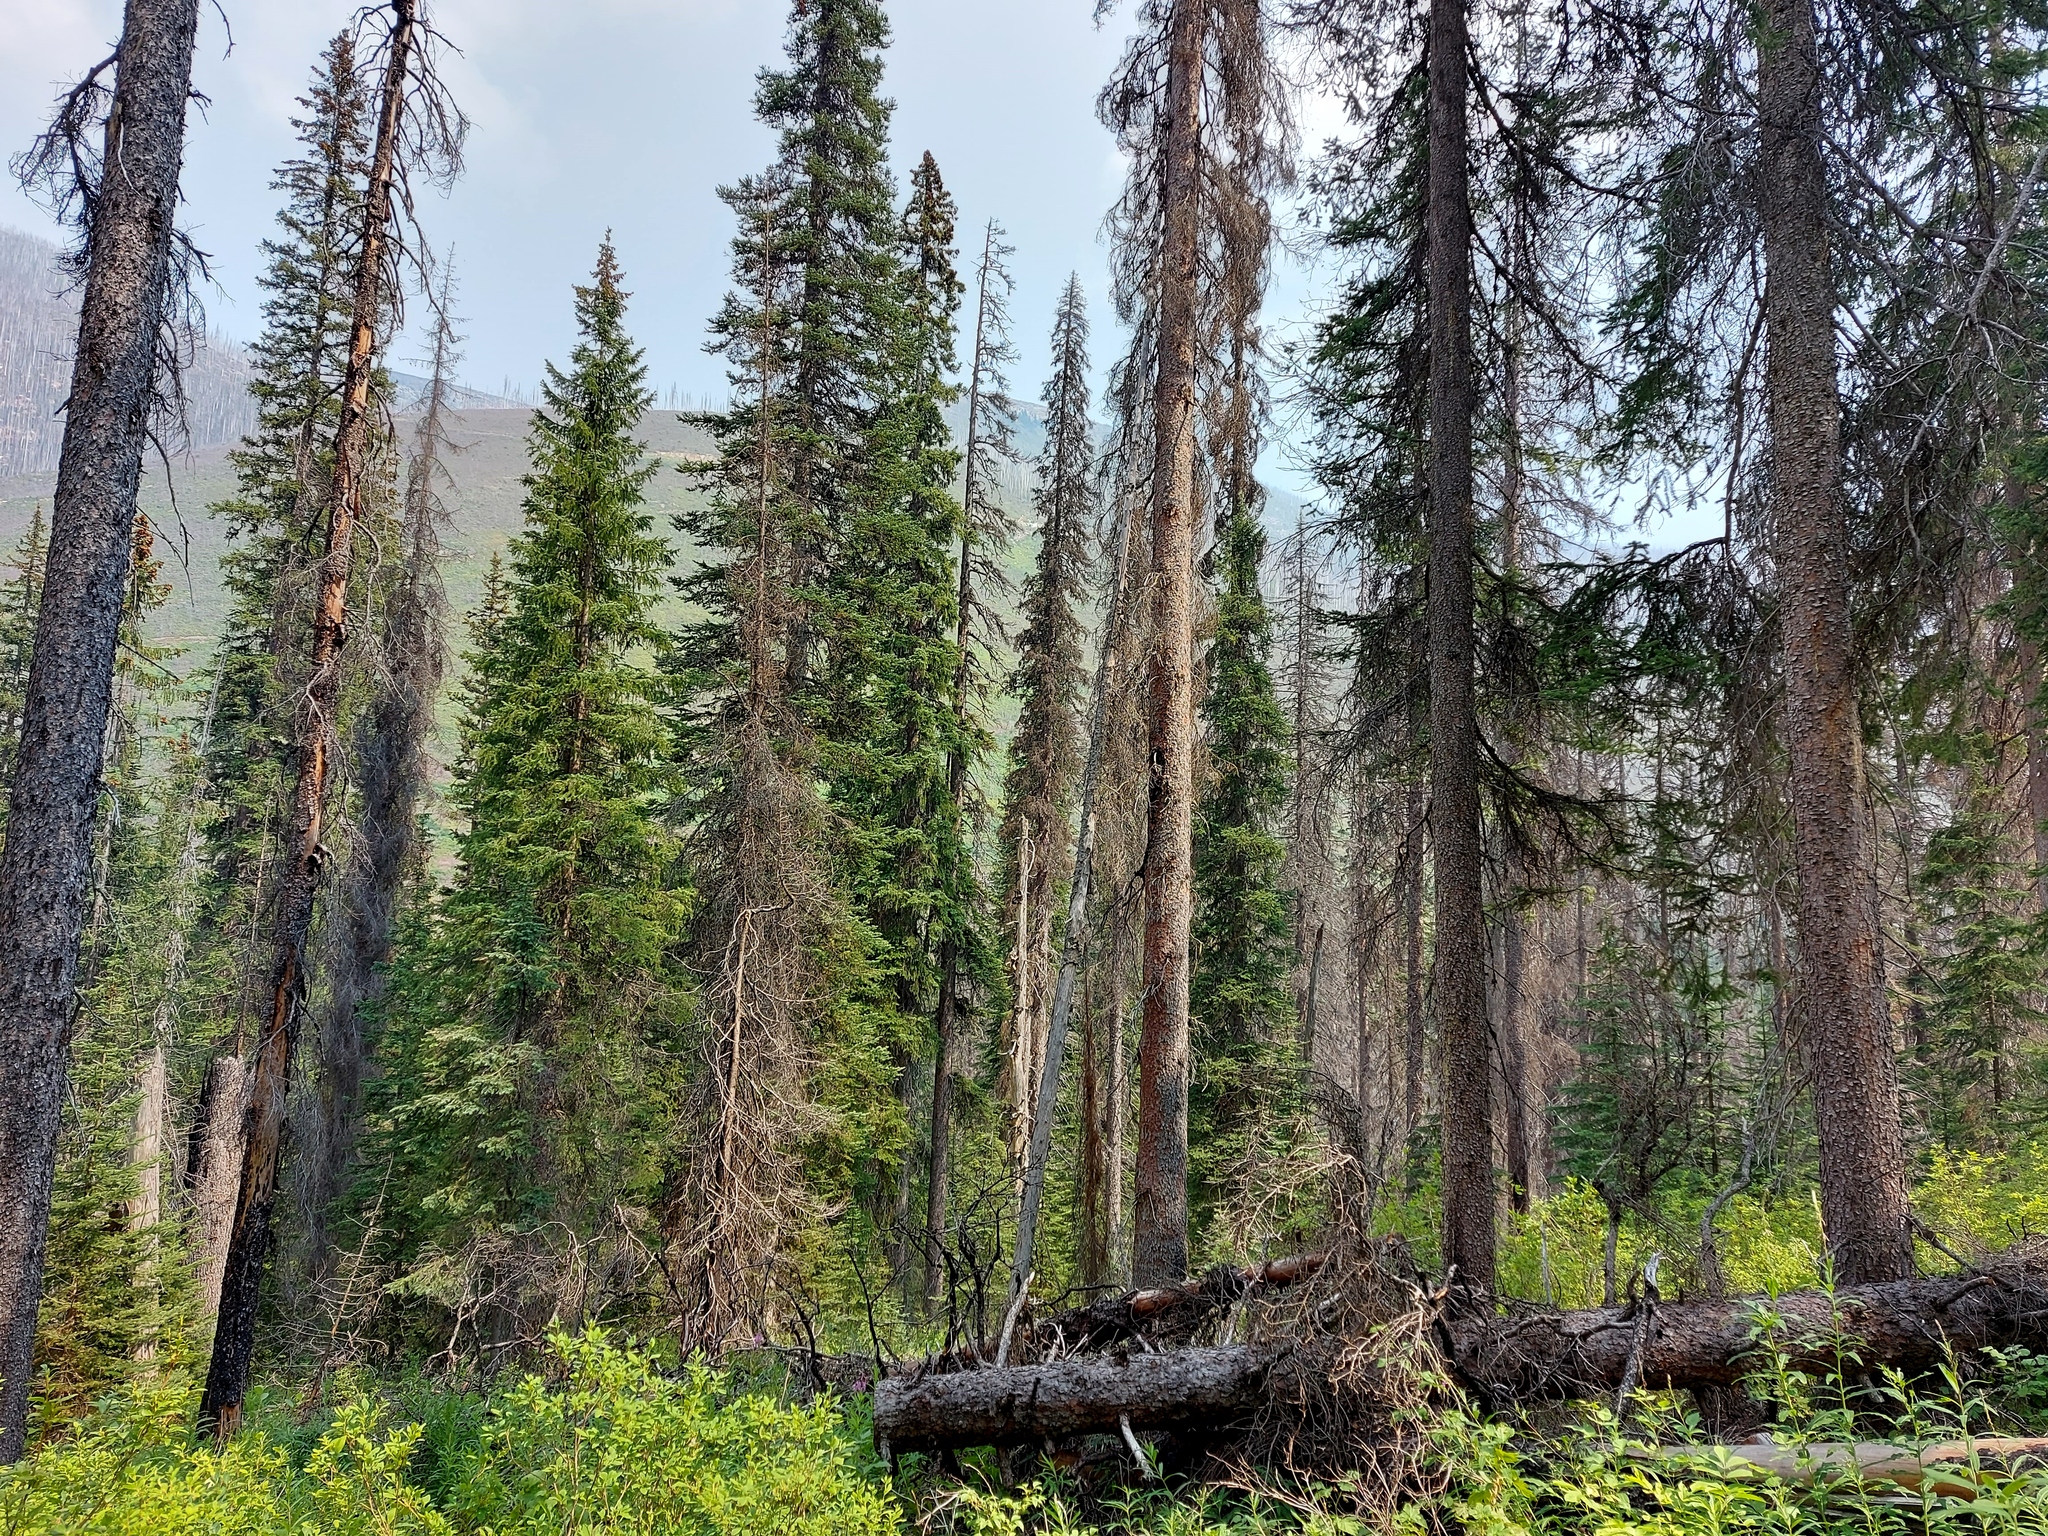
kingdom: Animalia
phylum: Chordata
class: Aves
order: Passeriformes
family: Tyrannidae
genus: Contopus
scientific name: Contopus cooperi
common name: Olive-sided flycatcher
